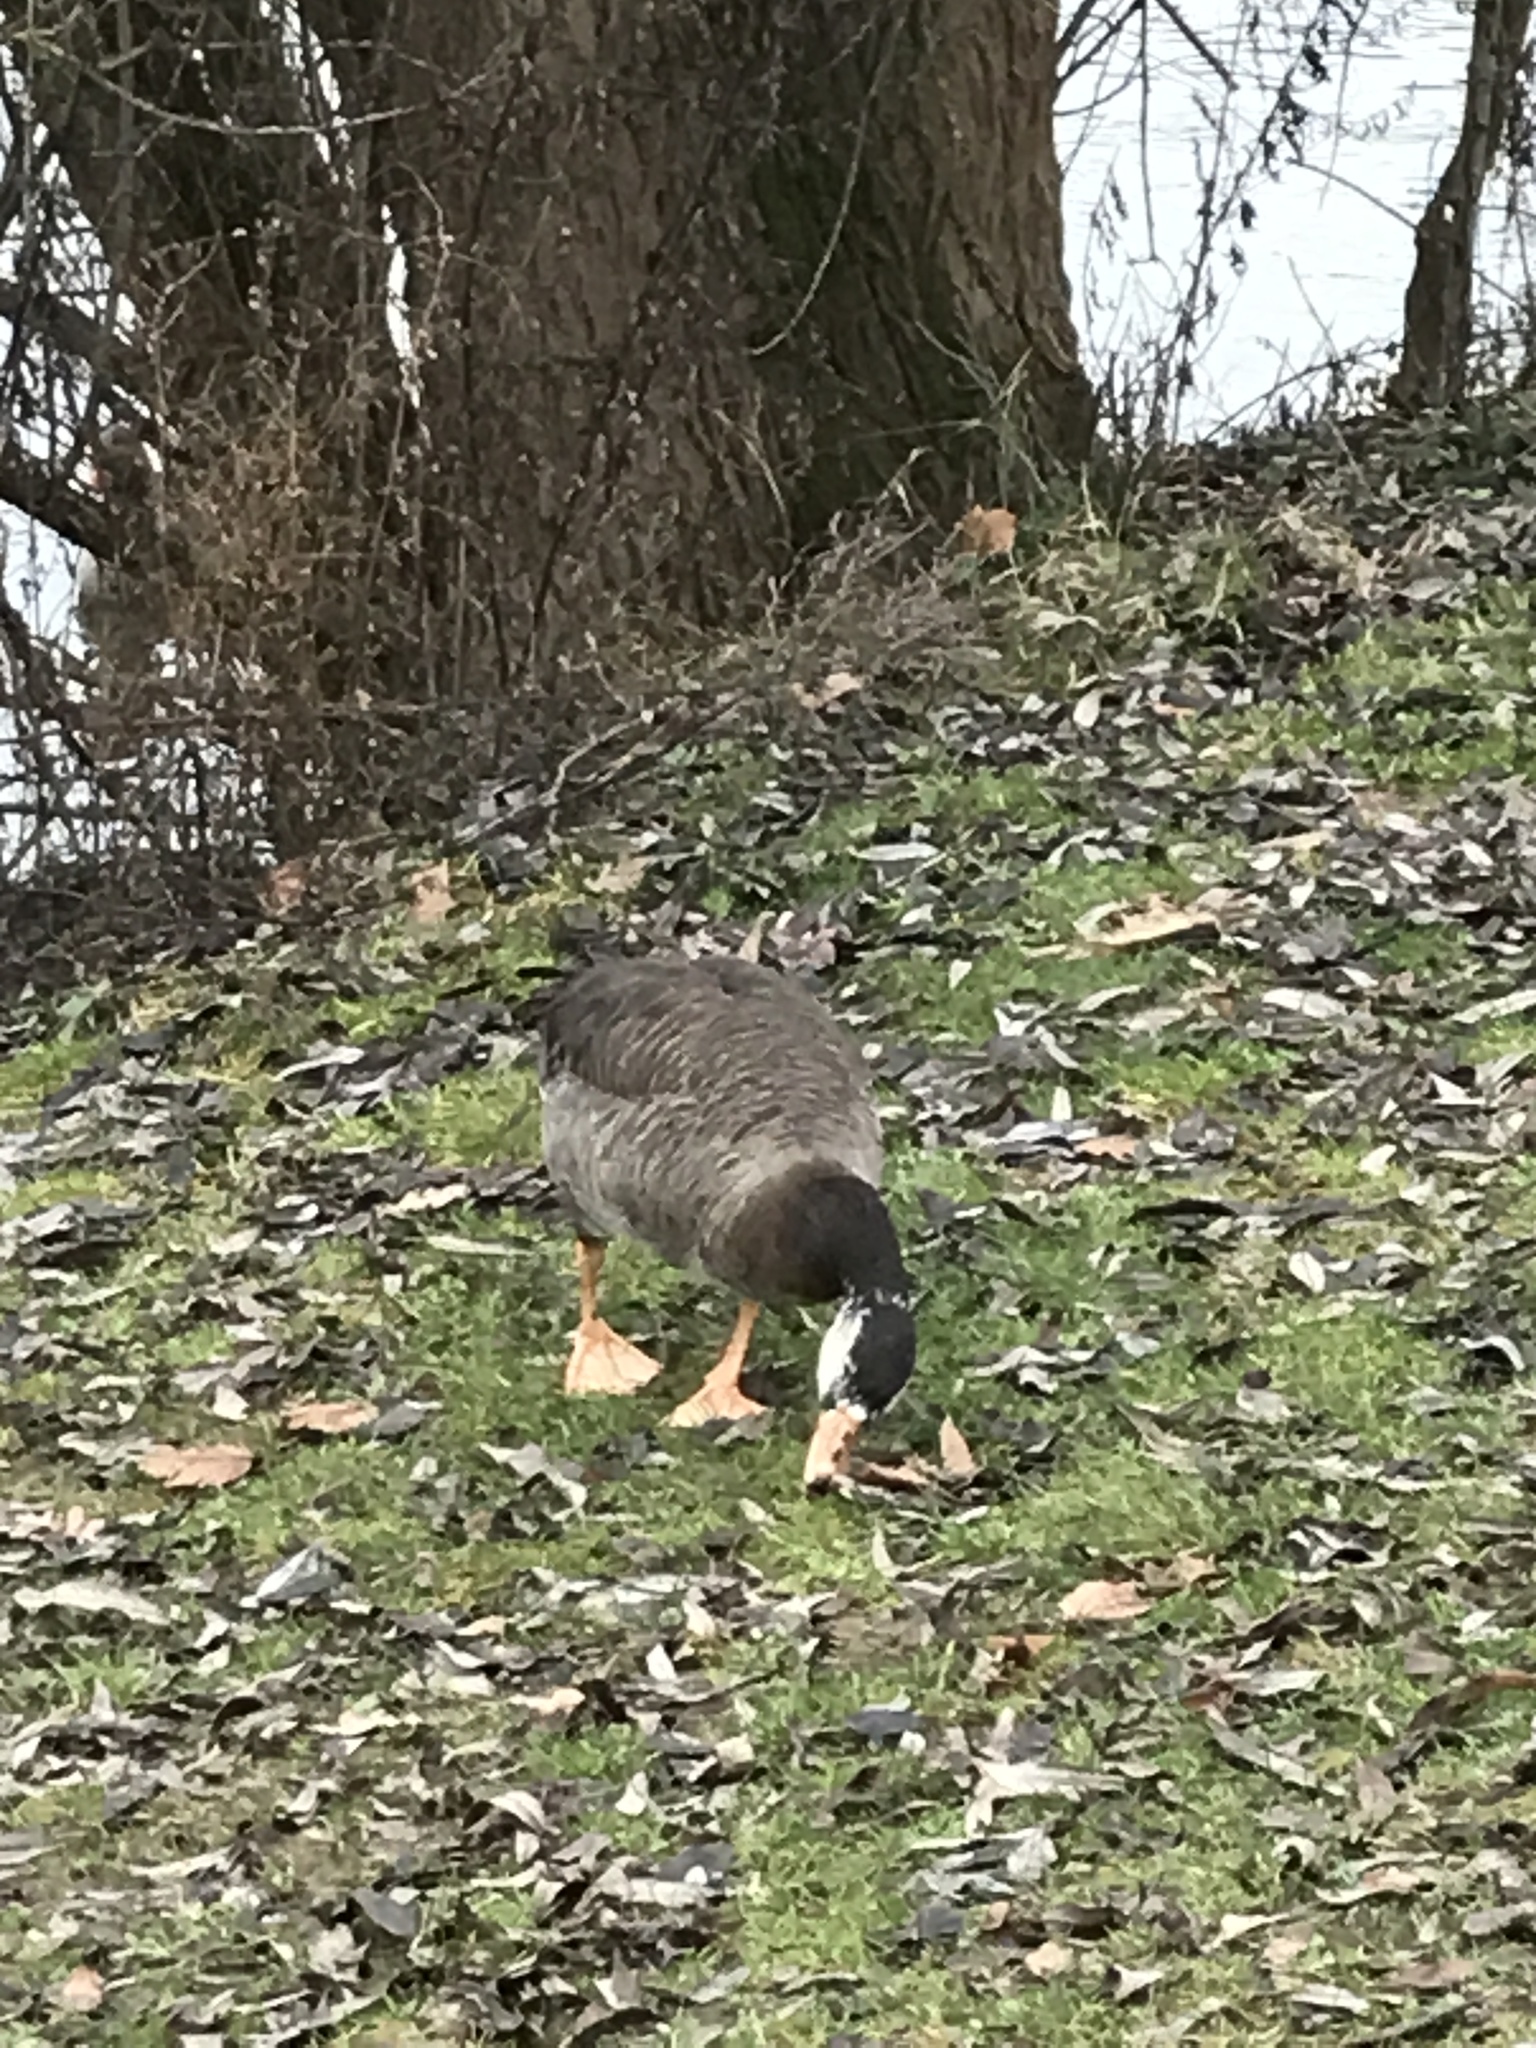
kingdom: Animalia
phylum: Chordata
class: Aves
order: Anseriformes
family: Anatidae
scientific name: Anatidae
